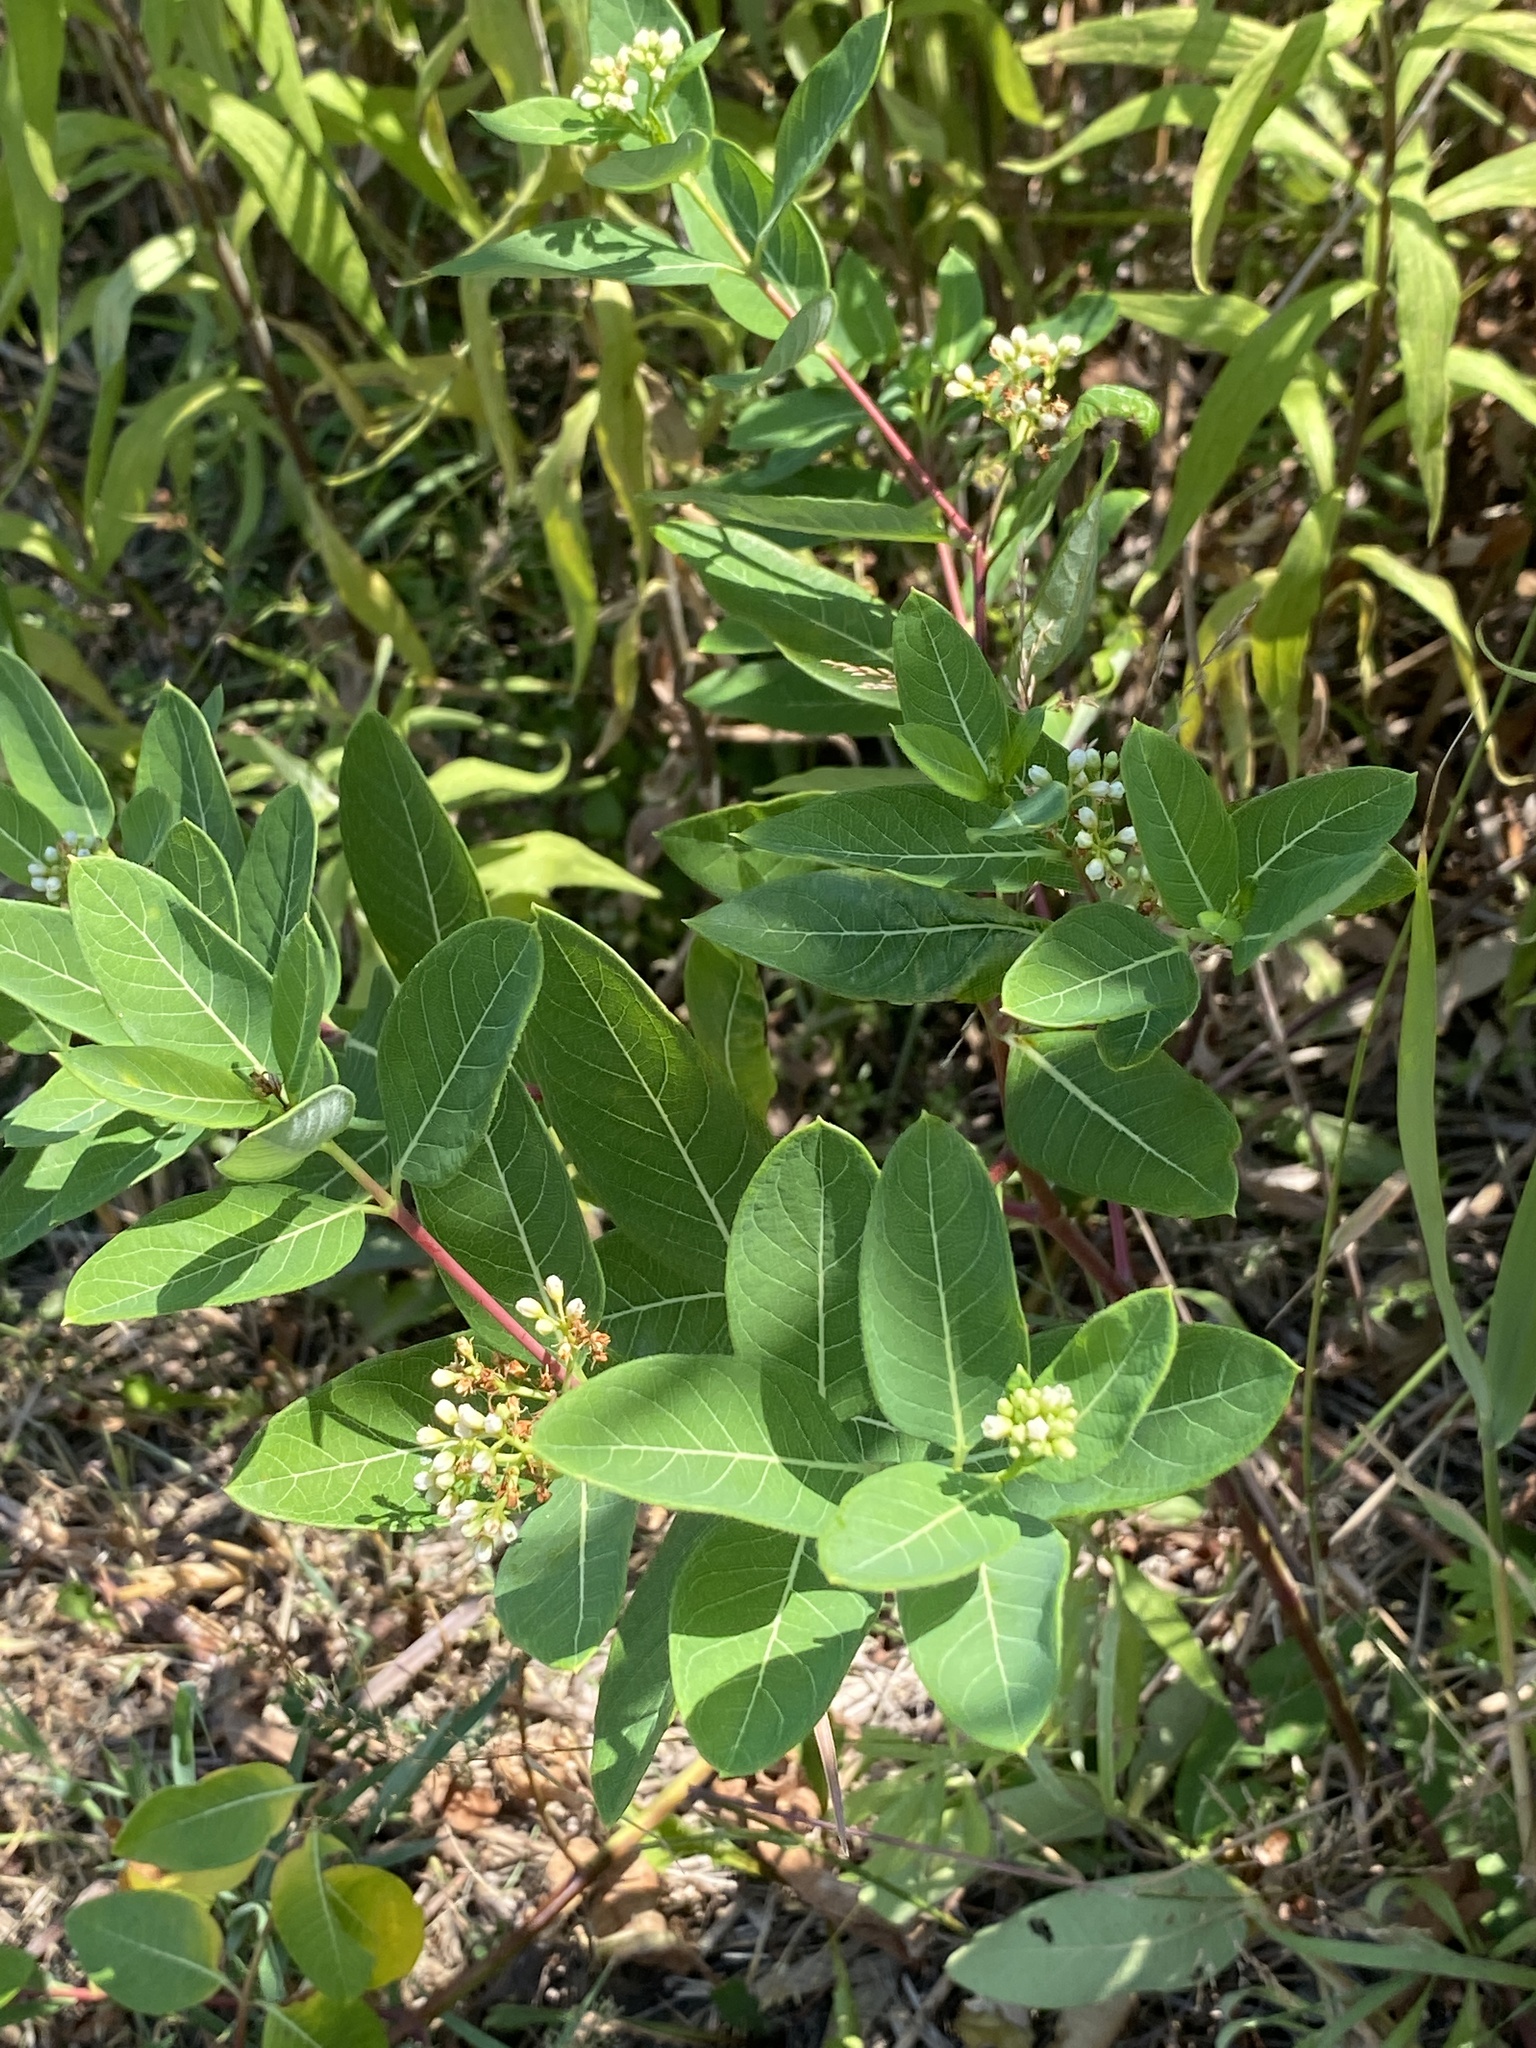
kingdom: Plantae
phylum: Tracheophyta
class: Magnoliopsida
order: Gentianales
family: Apocynaceae
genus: Apocynum
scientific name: Apocynum cannabinum
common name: Hemp dogbane
